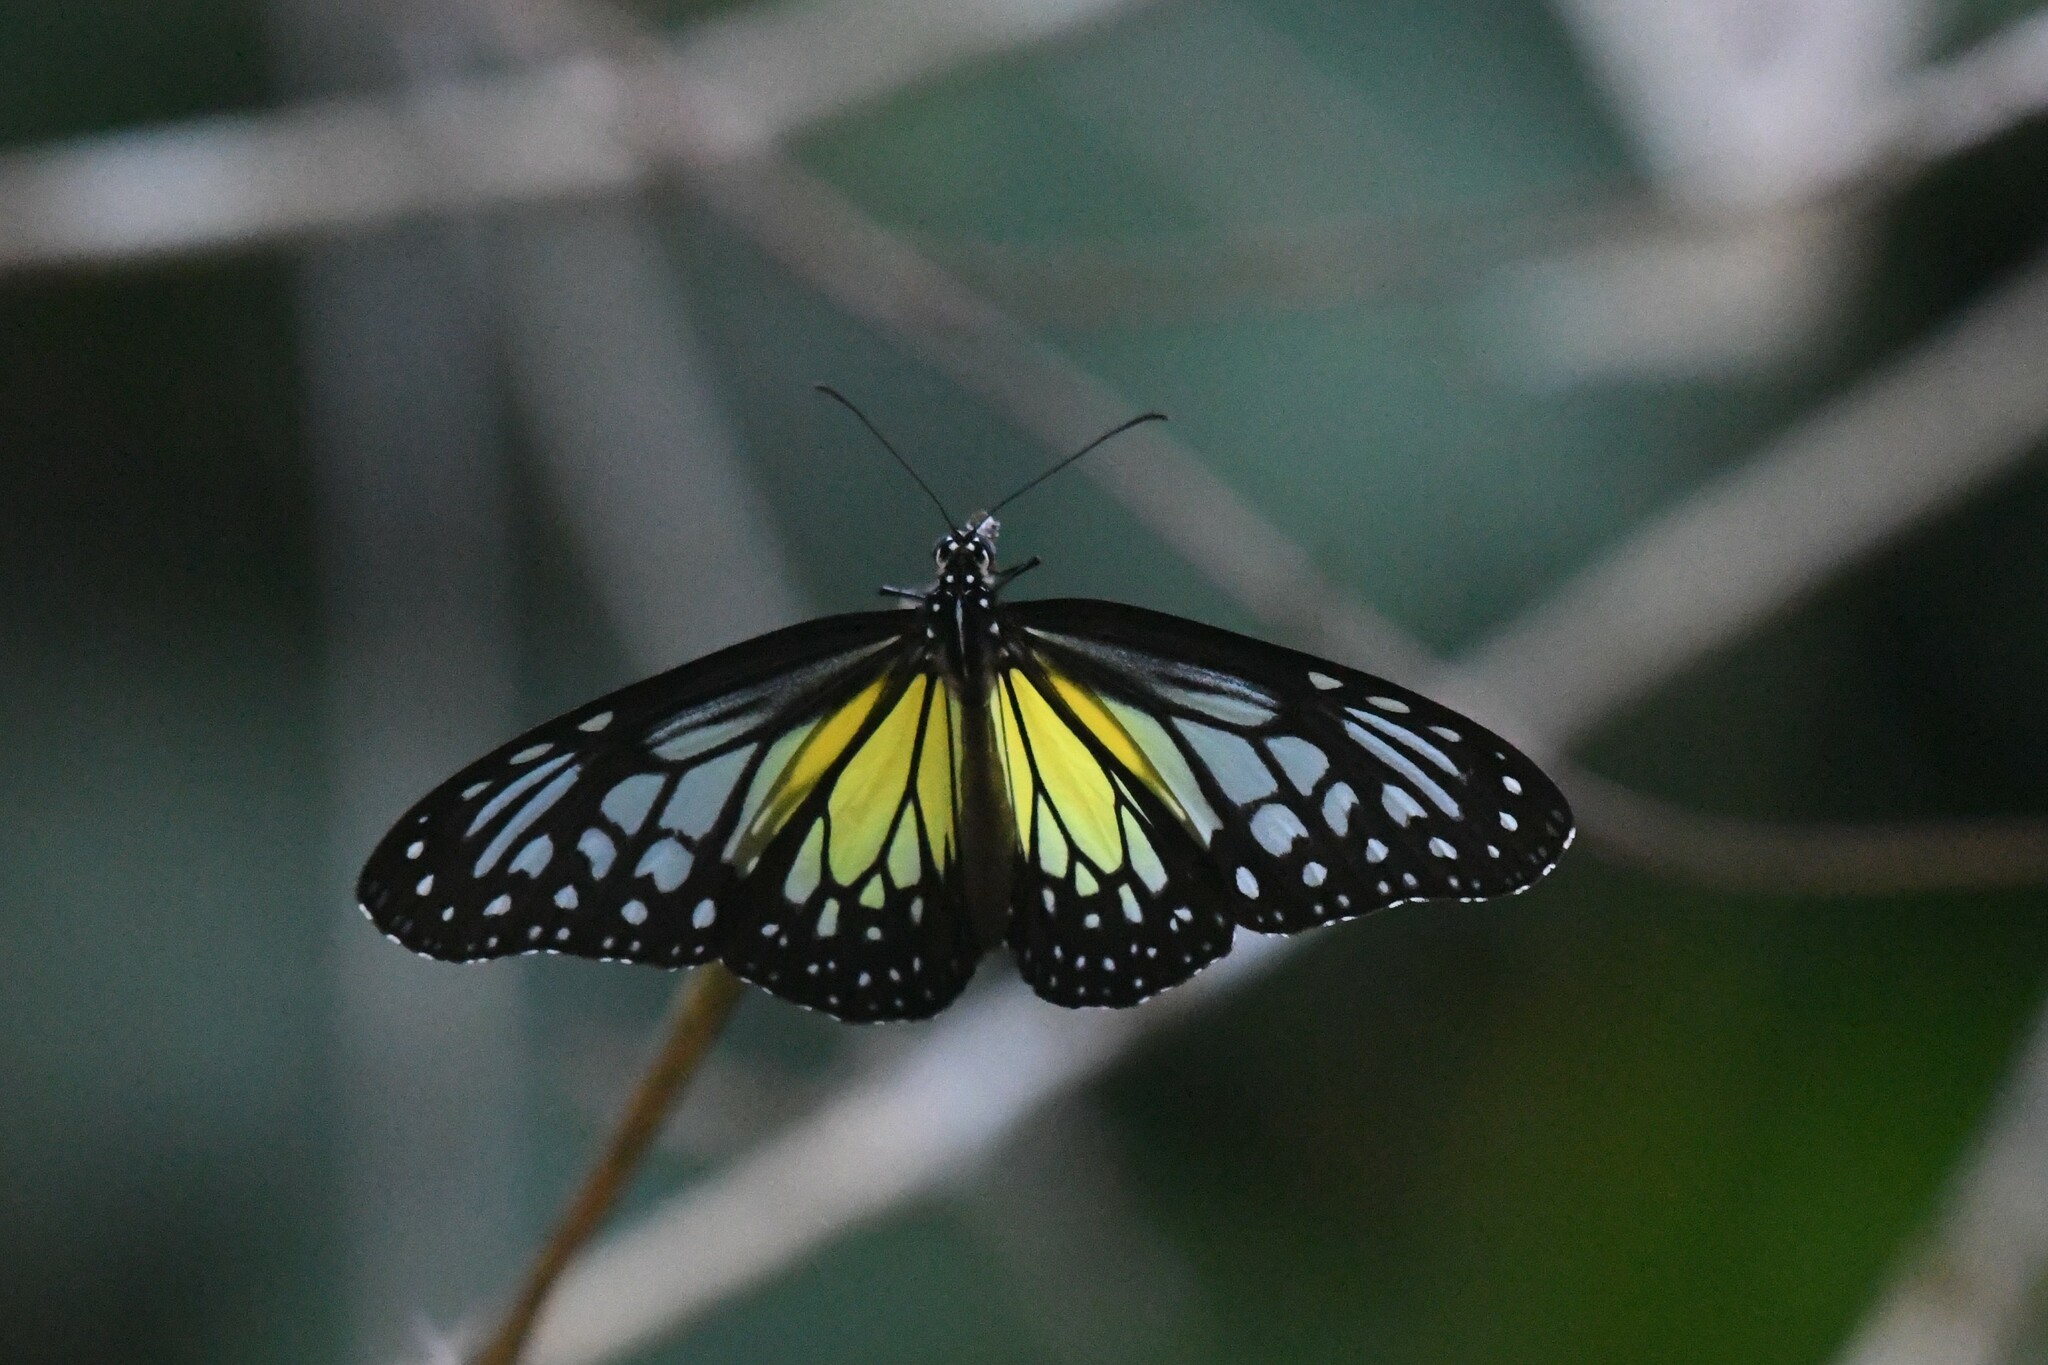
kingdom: Animalia
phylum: Arthropoda
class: Insecta
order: Lepidoptera
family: Nymphalidae
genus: Parantica
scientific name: Parantica aspasia
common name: Yellow glassy tiger
